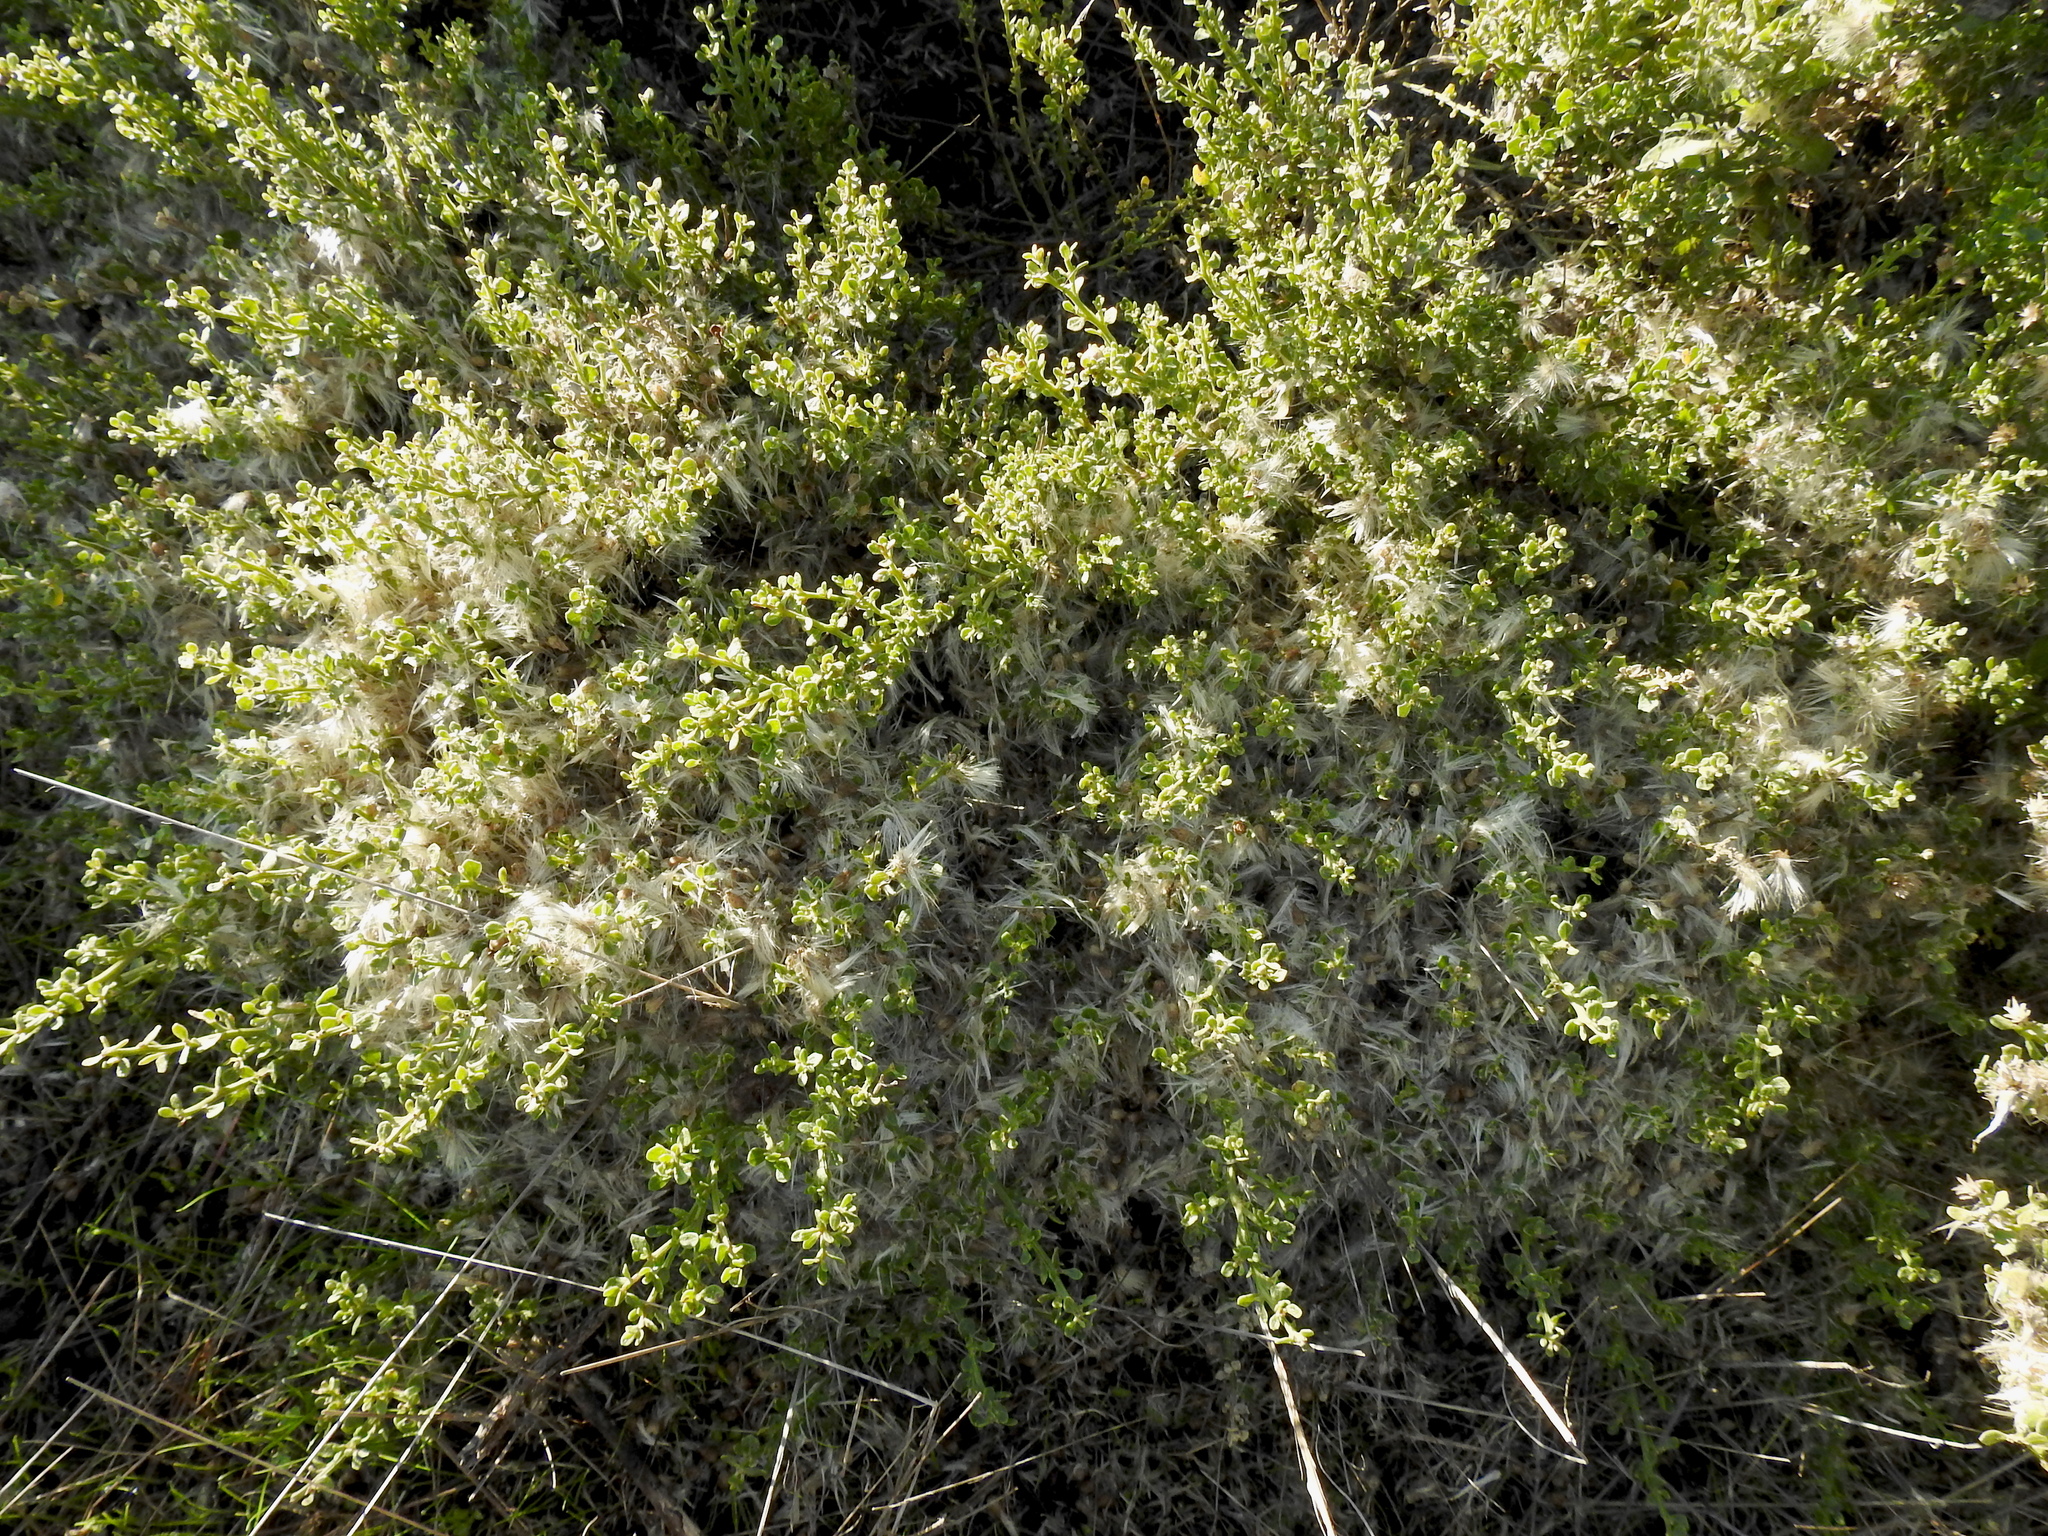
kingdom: Plantae
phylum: Tracheophyta
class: Magnoliopsida
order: Asterales
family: Asteraceae
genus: Baccharis
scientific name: Baccharis pilularis
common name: Coyotebrush
